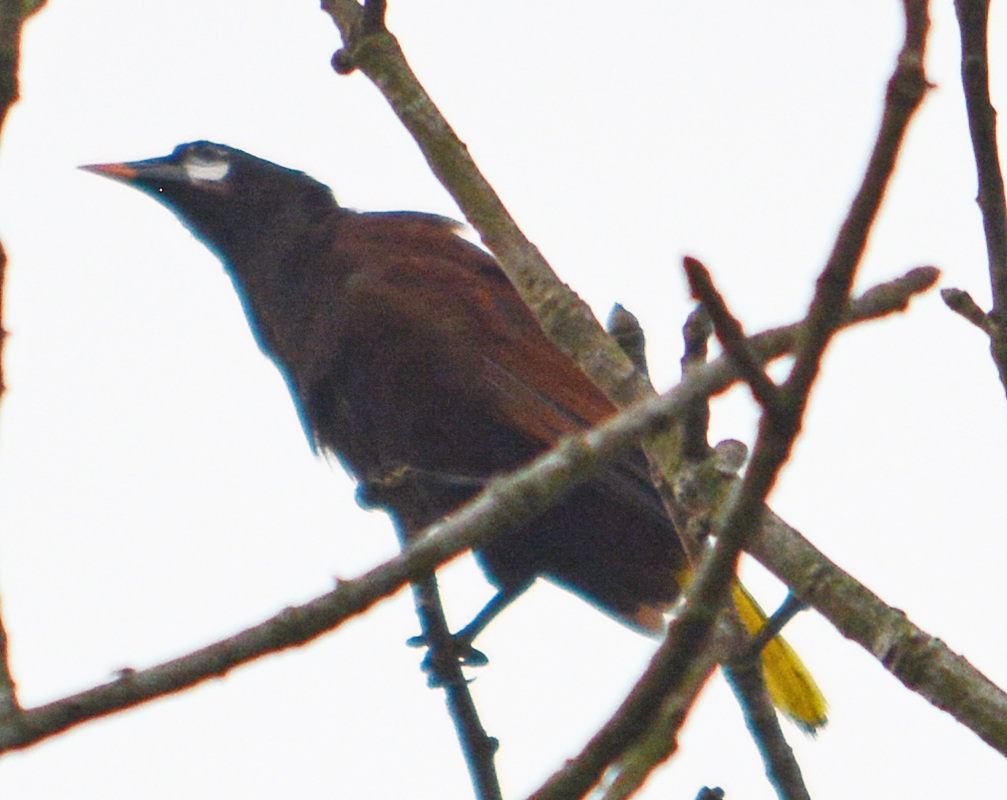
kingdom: Animalia
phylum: Chordata
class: Aves
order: Passeriformes
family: Icteridae
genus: Psarocolius
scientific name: Psarocolius montezuma
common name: Montezuma oropendola
